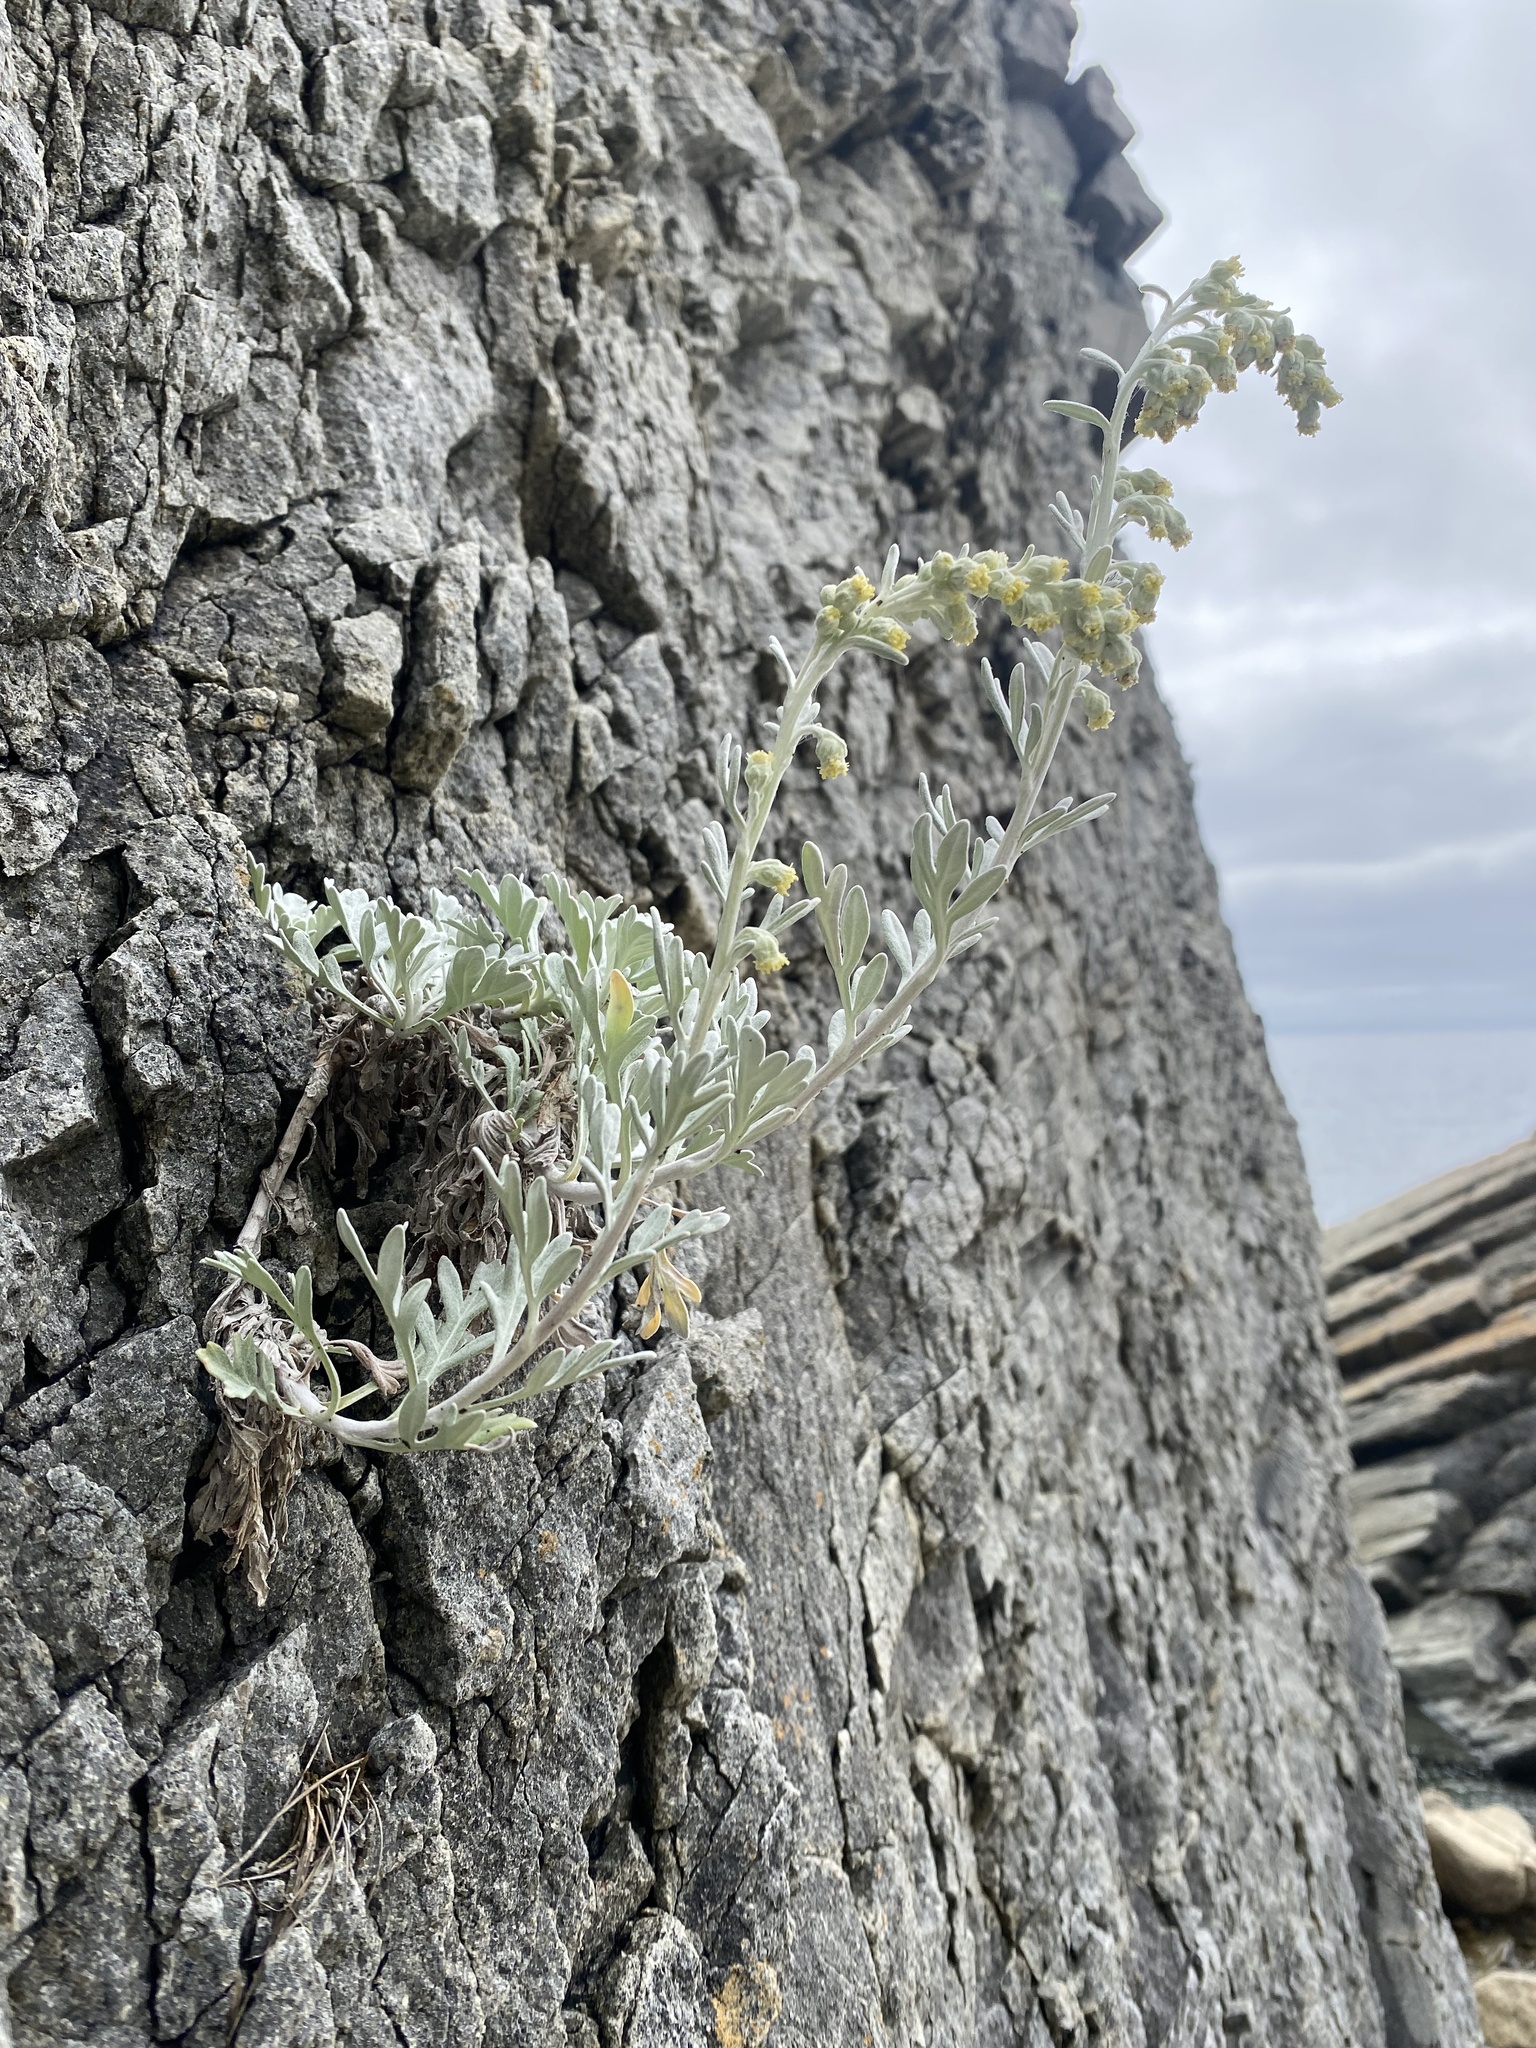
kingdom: Plantae
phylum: Tracheophyta
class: Magnoliopsida
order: Asterales
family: Asteraceae
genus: Artemisia
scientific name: Artemisia stelleriana
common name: Beach wormwood
